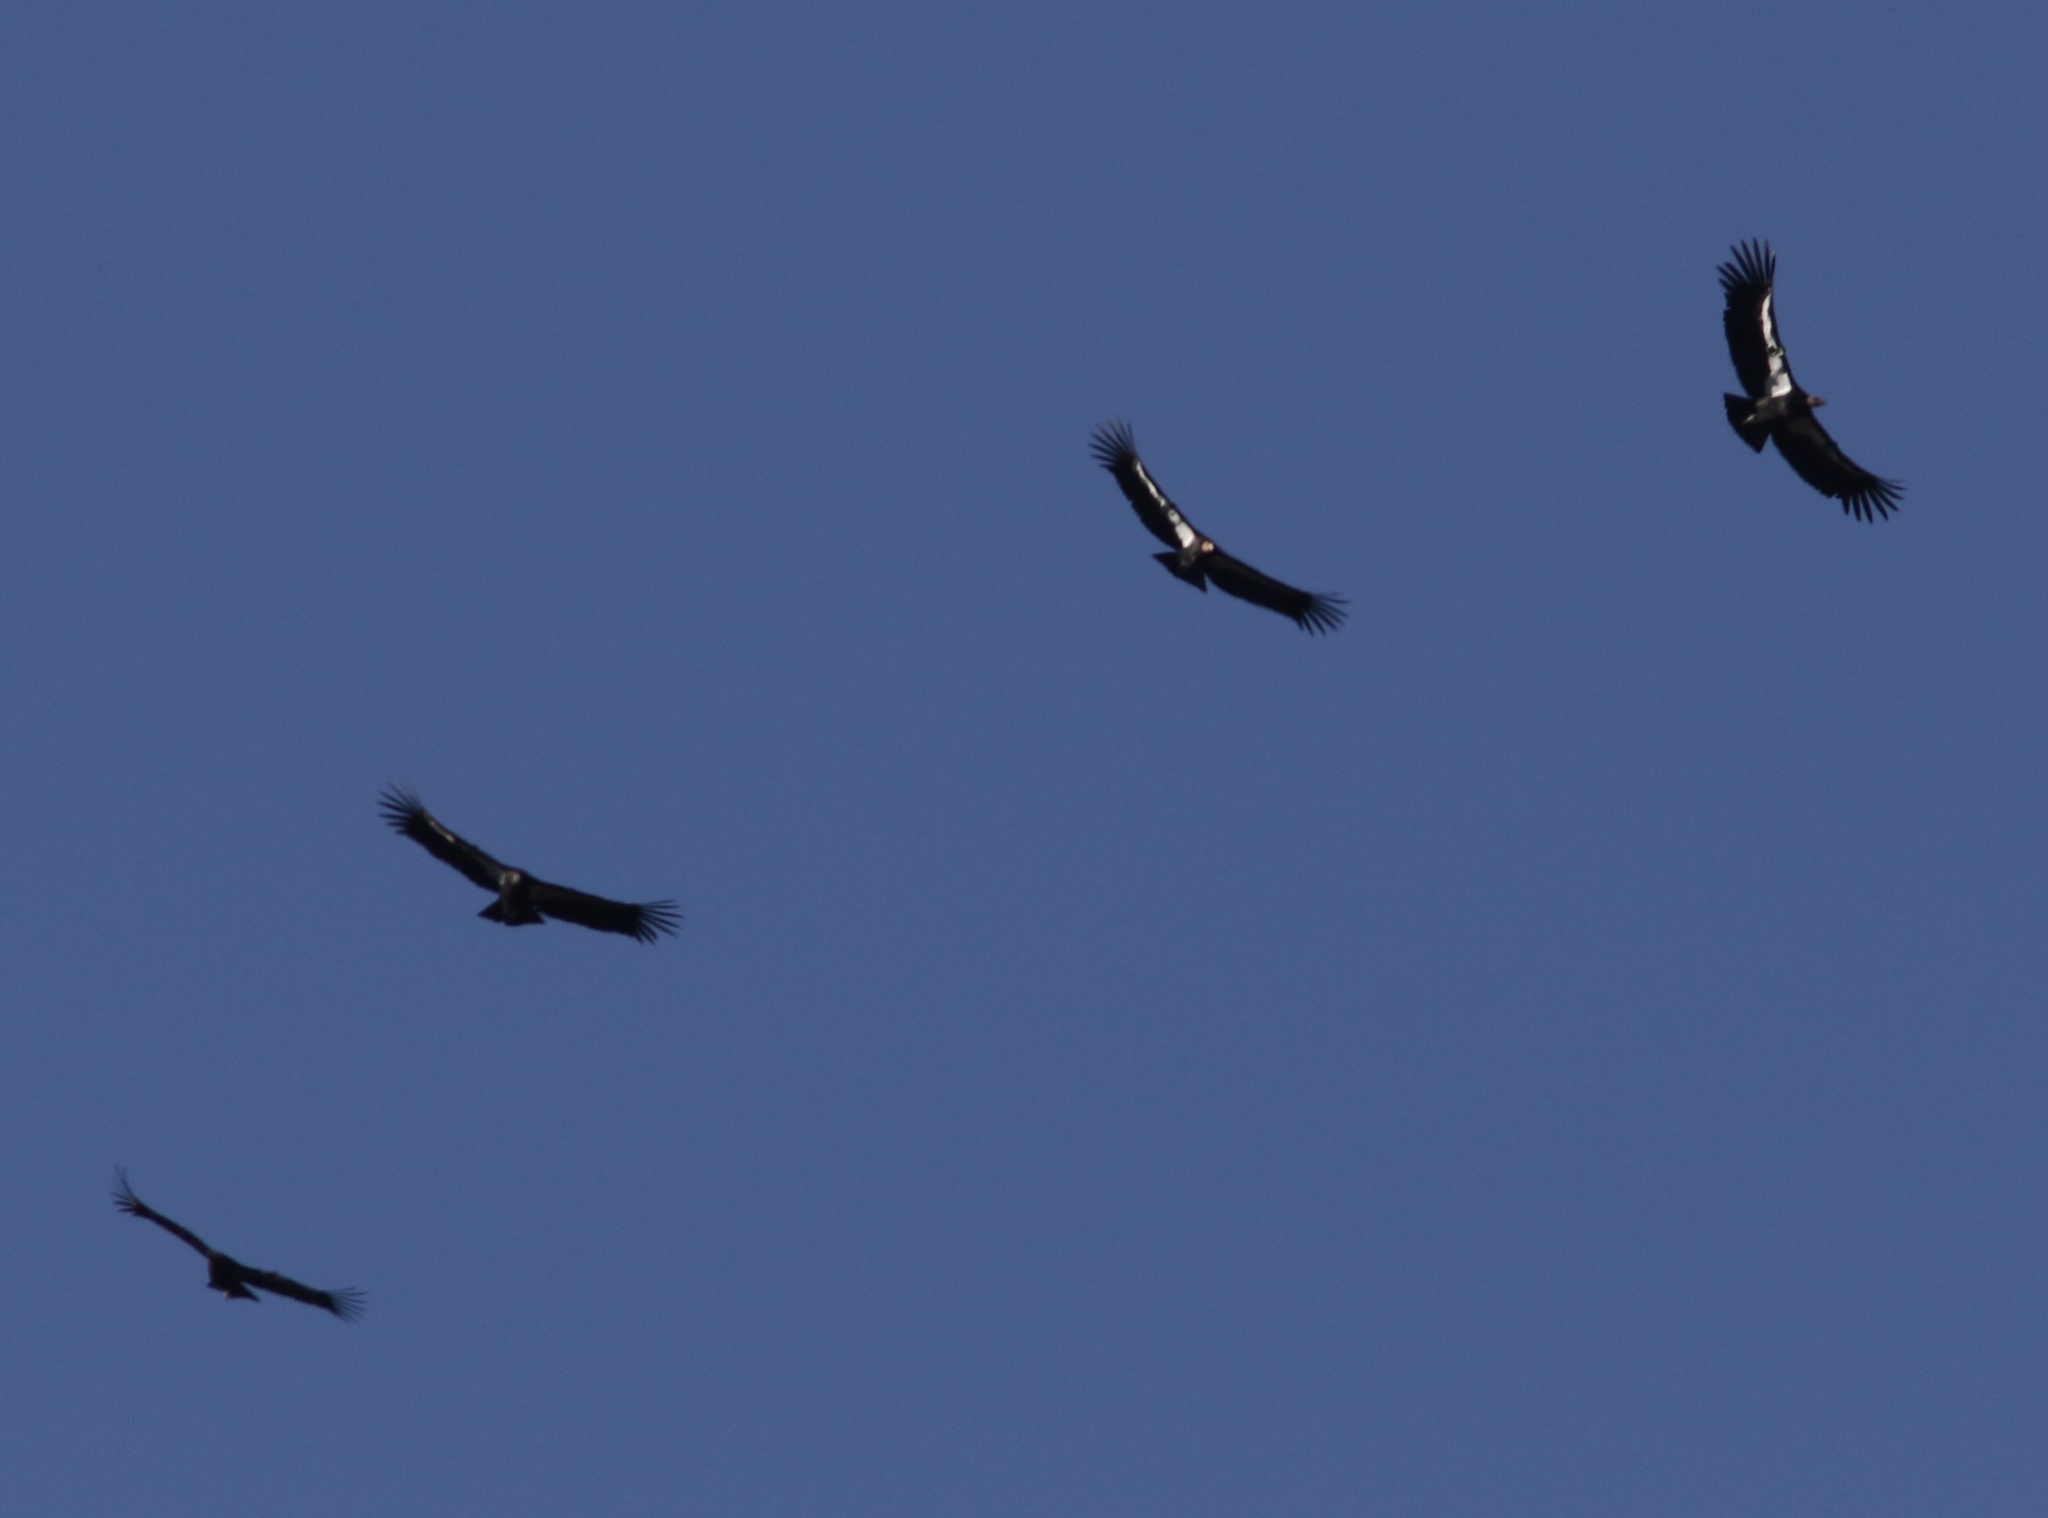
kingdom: Animalia
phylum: Chordata
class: Aves
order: Accipitriformes
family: Cathartidae
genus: Gymnogyps
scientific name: Gymnogyps californianus
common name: California condor
